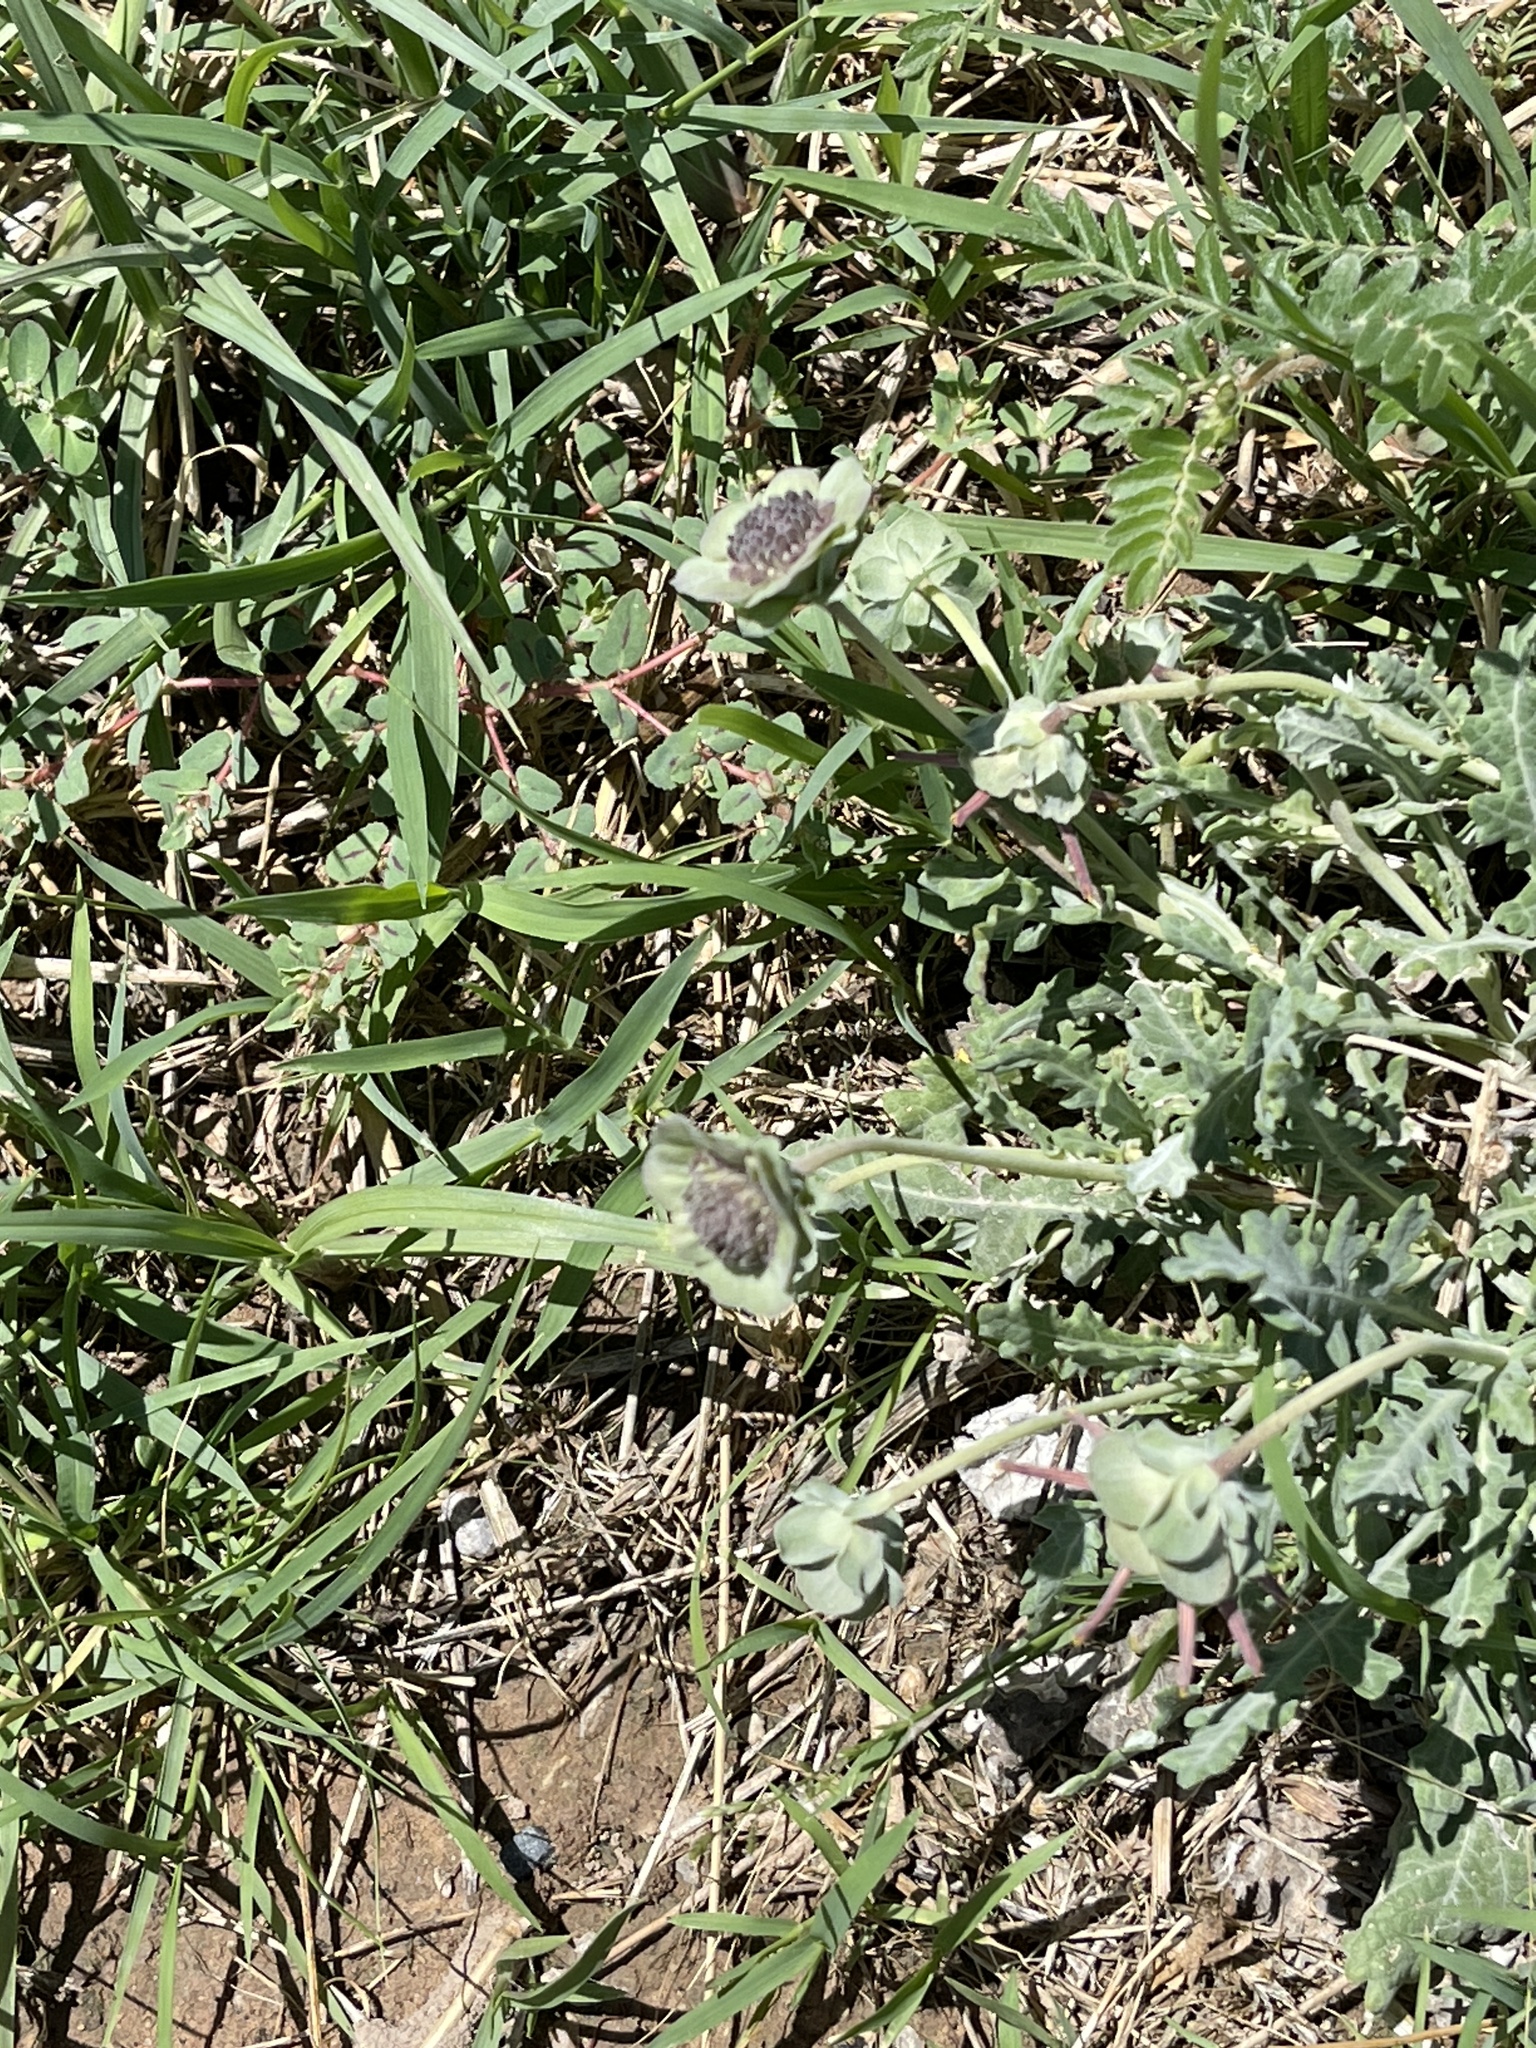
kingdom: Plantae
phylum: Tracheophyta
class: Magnoliopsida
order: Asterales
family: Asteraceae
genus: Berlandiera
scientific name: Berlandiera lyrata
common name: Chocolate-flower
